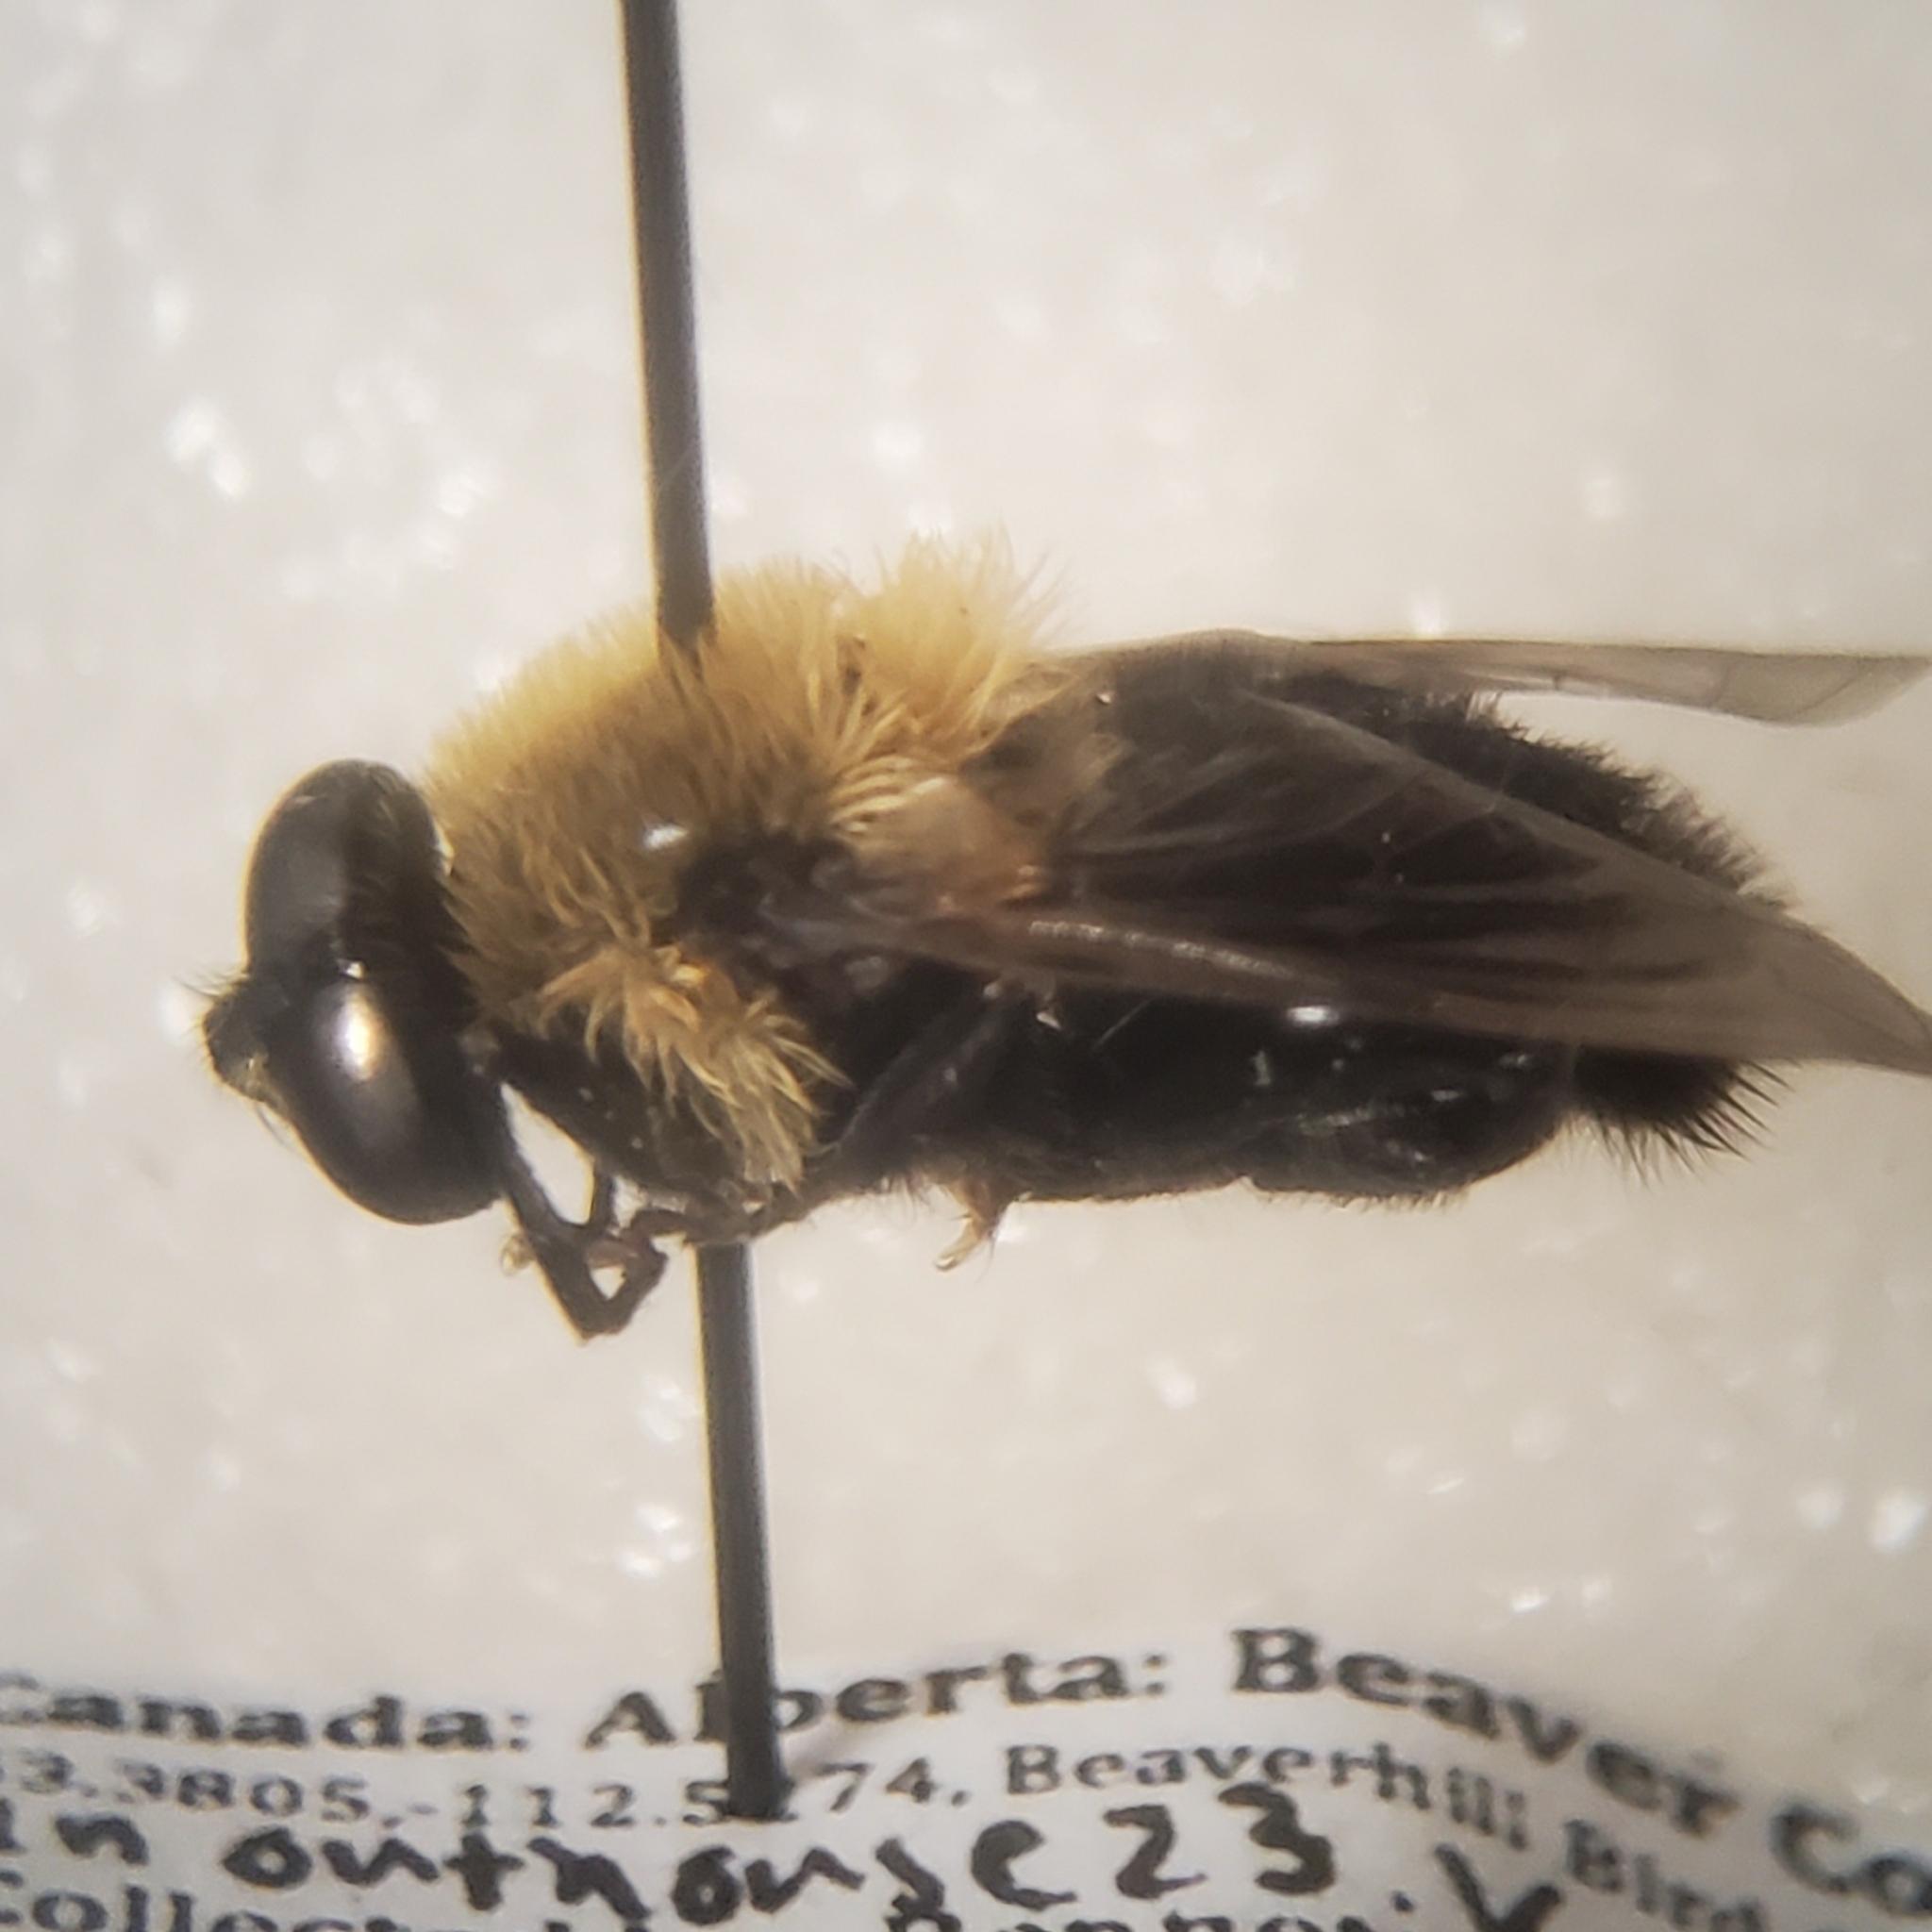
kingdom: Animalia
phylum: Arthropoda
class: Insecta
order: Diptera
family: Syrphidae
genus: Imatisma
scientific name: Imatisma bautias
